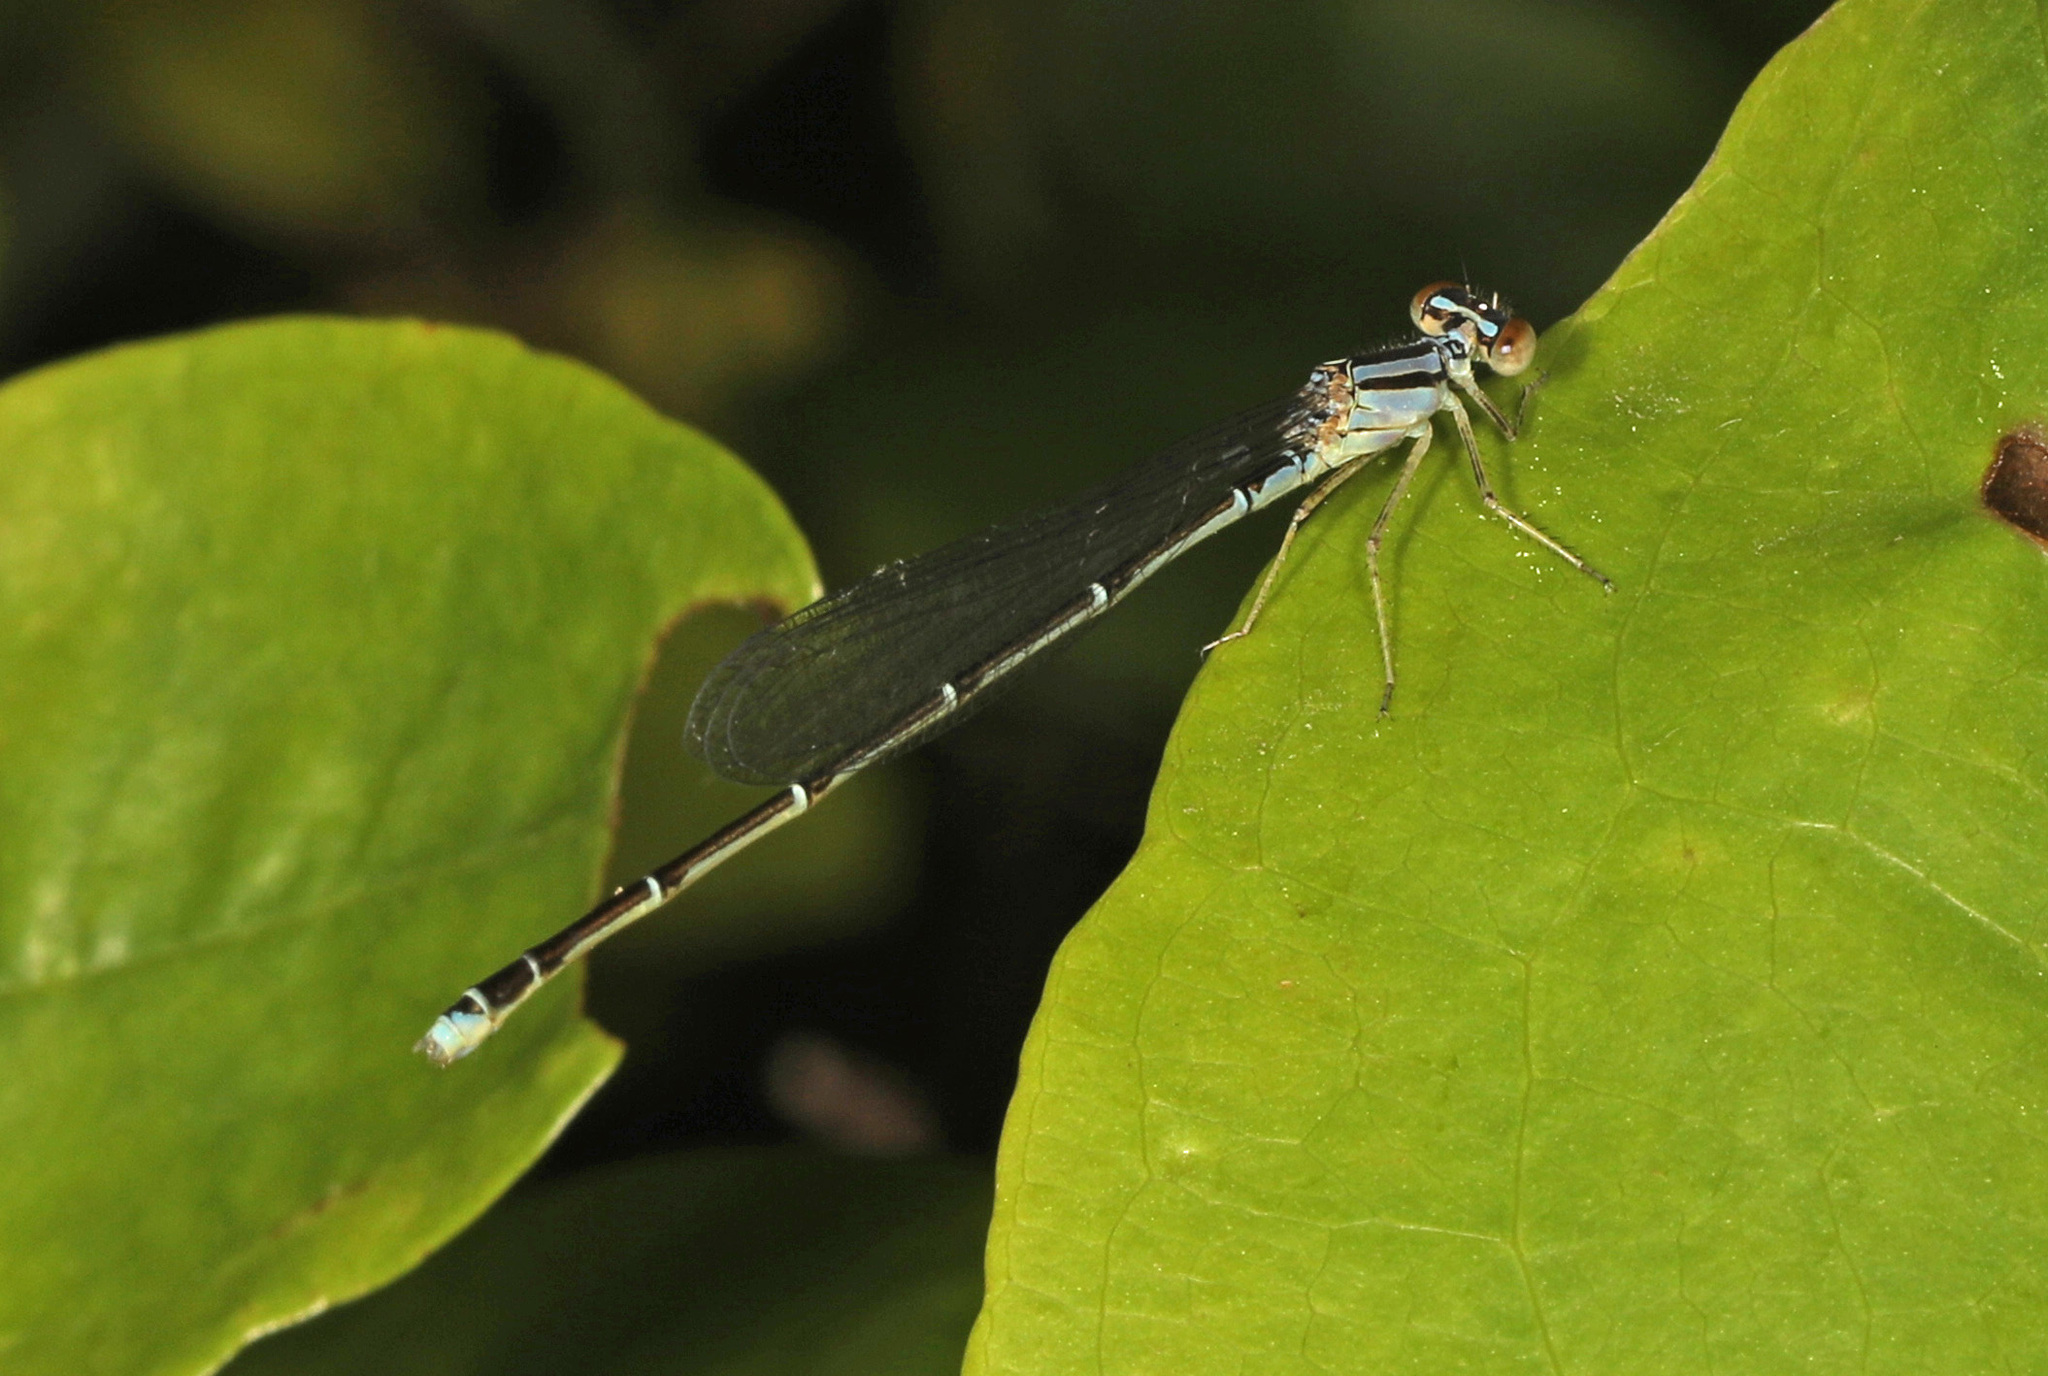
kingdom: Animalia
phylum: Arthropoda
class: Insecta
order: Odonata
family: Coenagrionidae
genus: Enallagma
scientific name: Enallagma signatum
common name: Orange bluet
